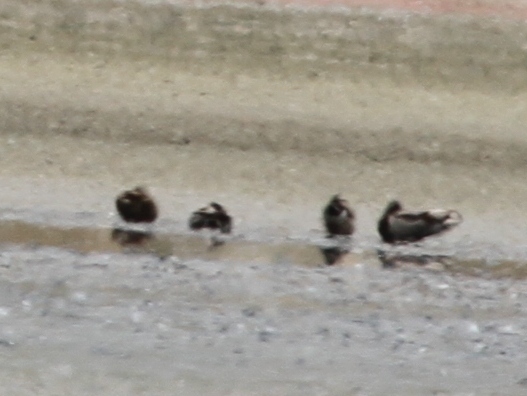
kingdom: Animalia
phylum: Chordata
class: Aves
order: Anseriformes
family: Anatidae
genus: Anas
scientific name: Anas platyrhynchos
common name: Mallard
